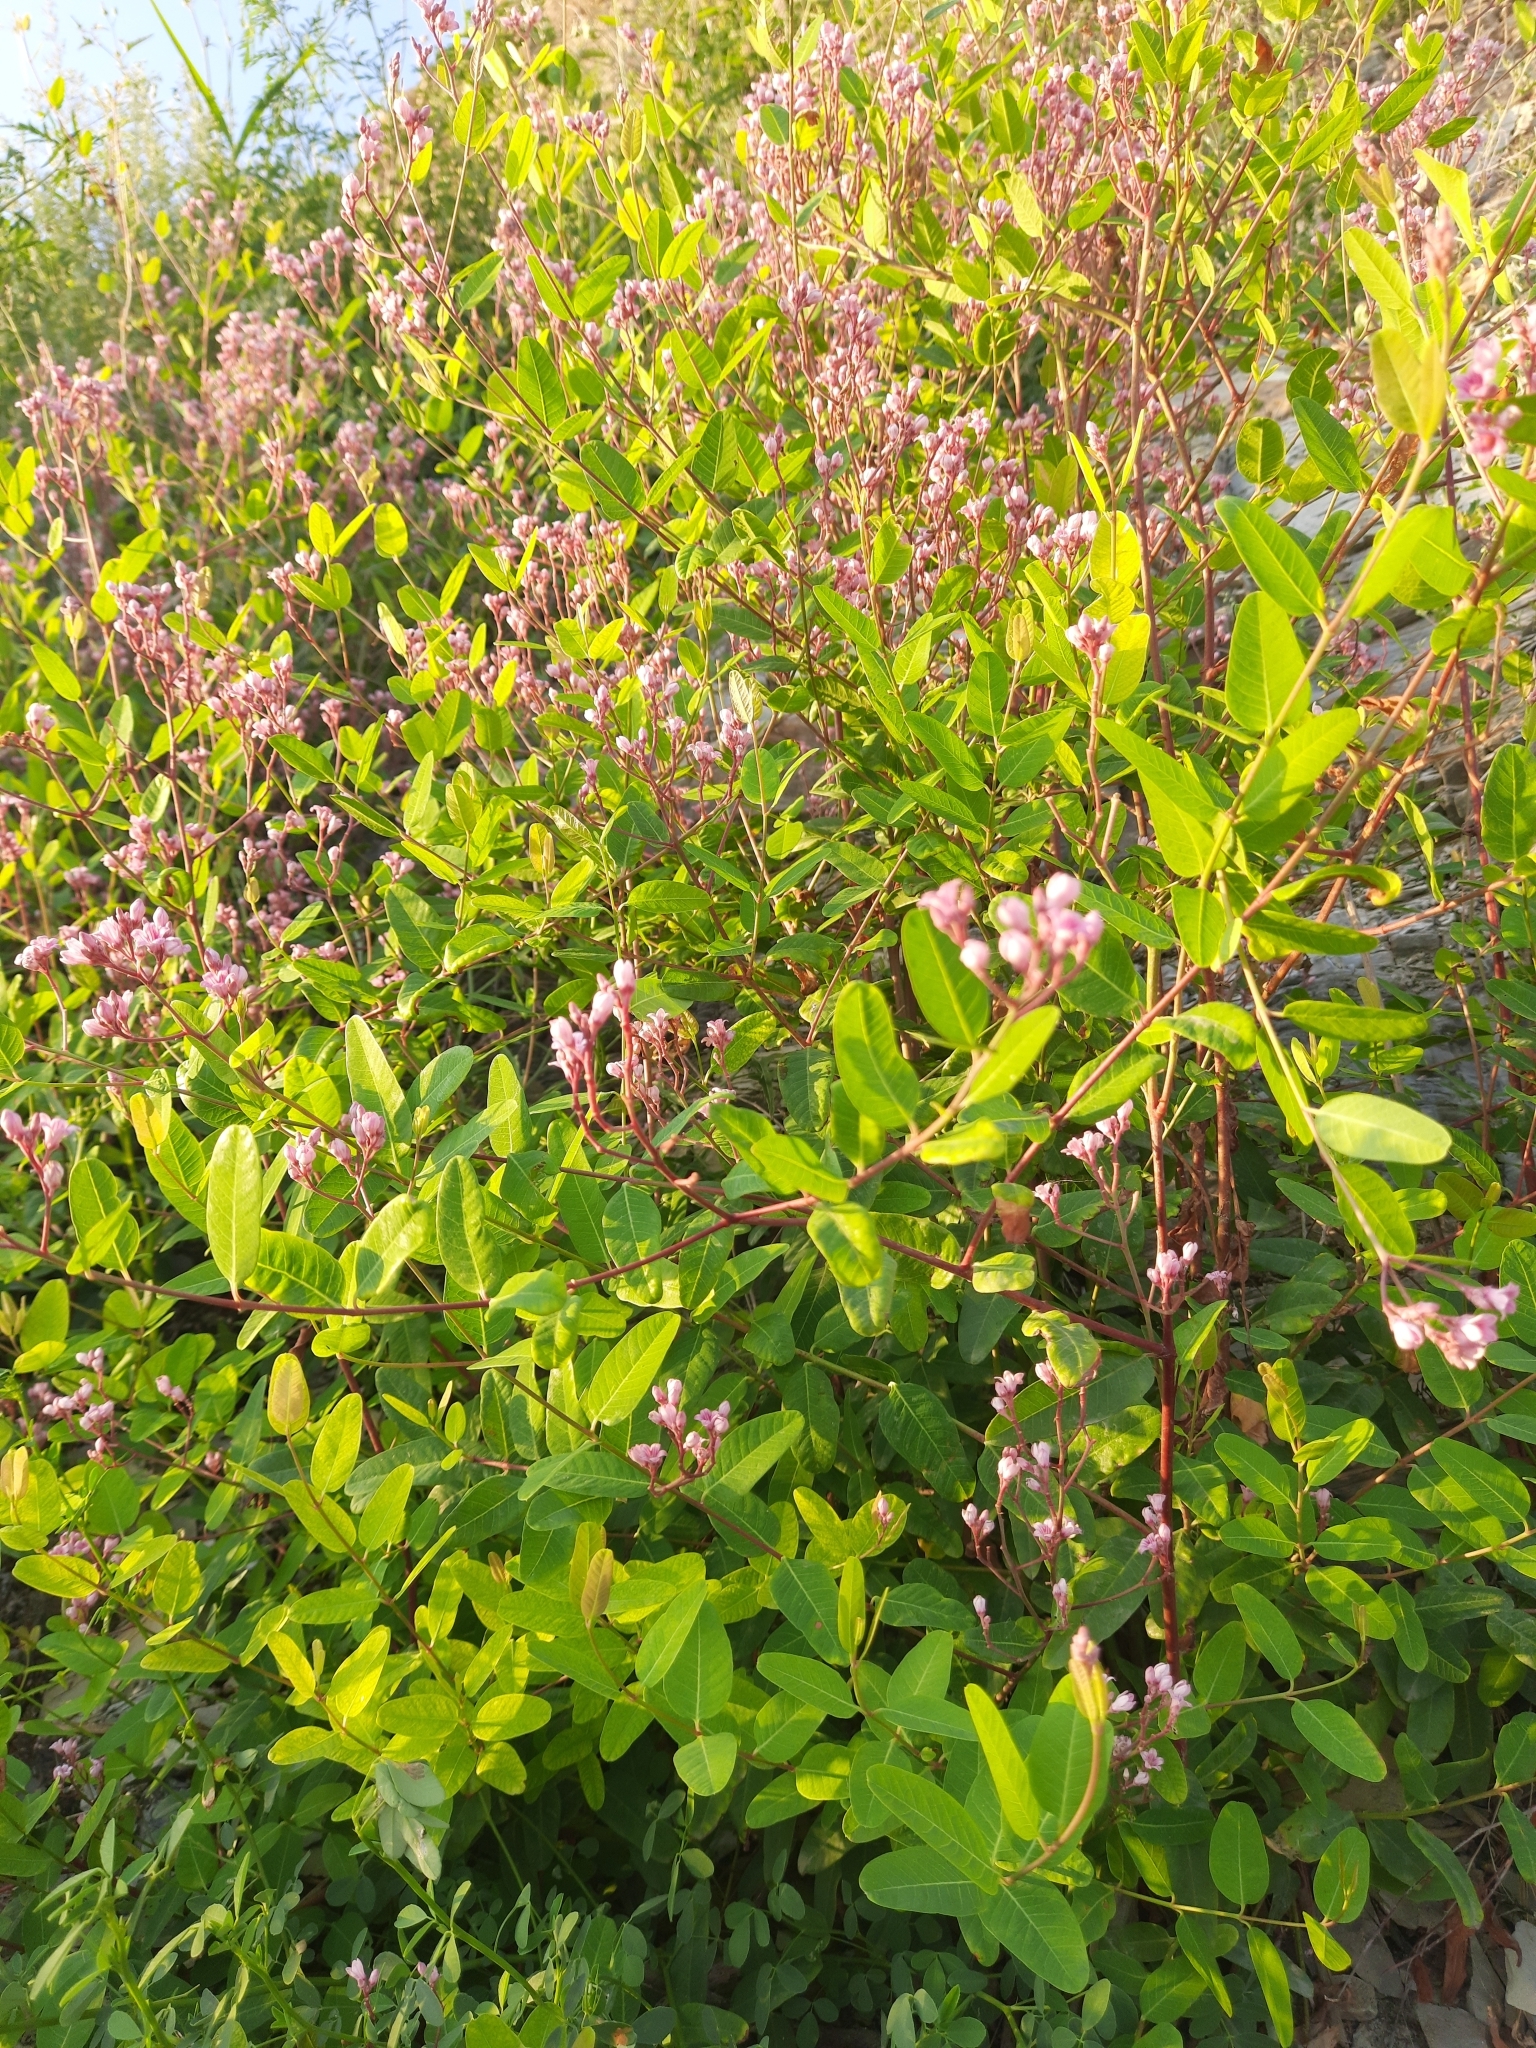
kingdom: Plantae
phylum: Tracheophyta
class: Magnoliopsida
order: Gentianales
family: Apocynaceae
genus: Poacynum
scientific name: Poacynum venetum
